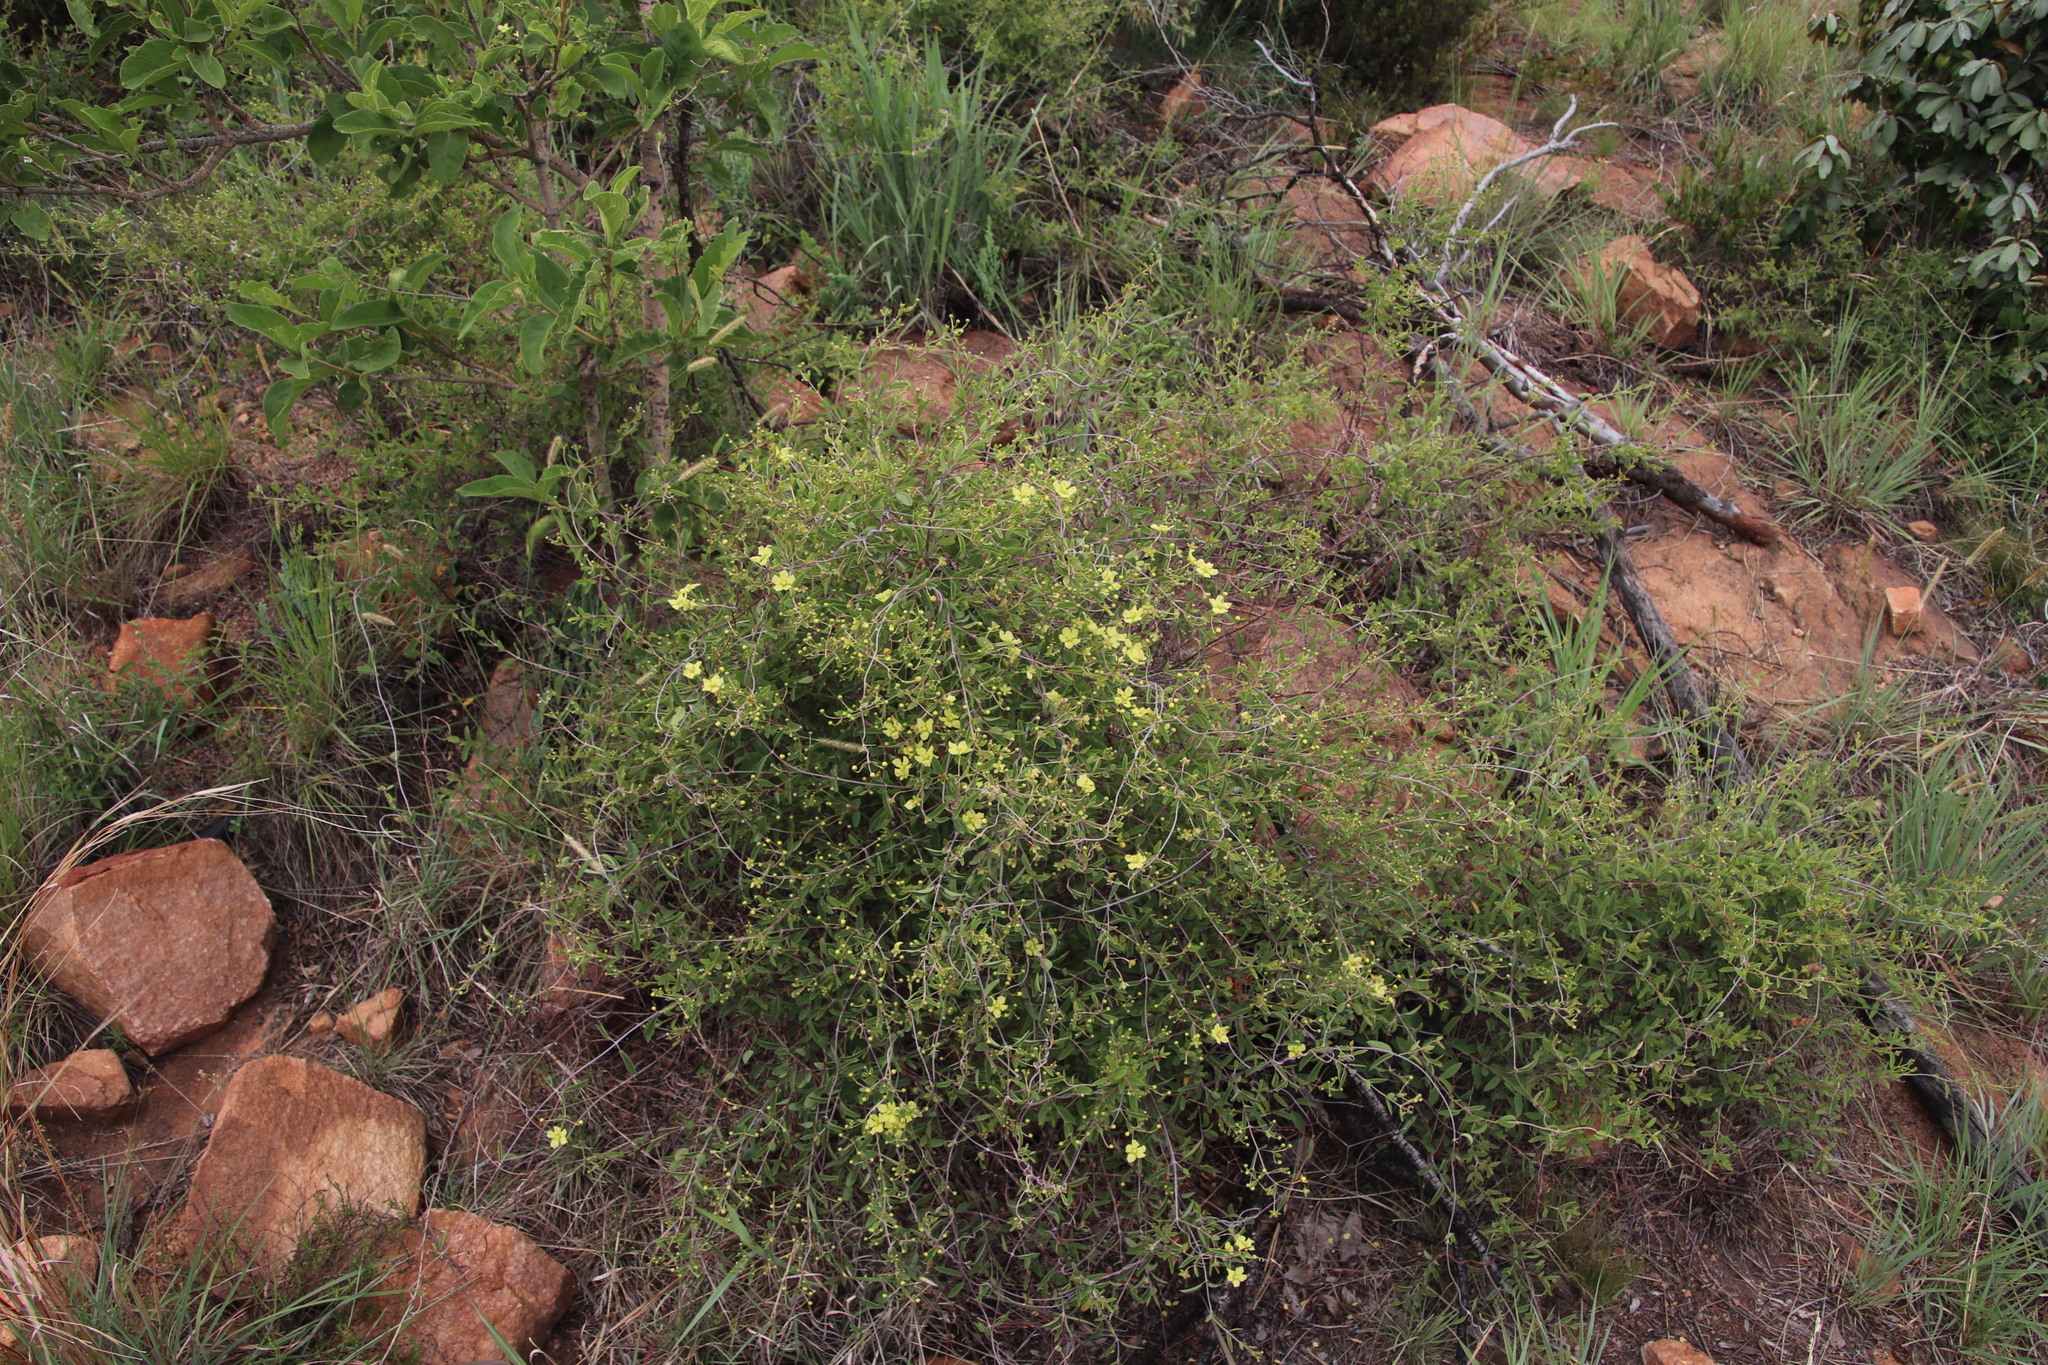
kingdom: Plantae
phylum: Tracheophyta
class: Magnoliopsida
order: Malpighiales
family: Malpighiaceae
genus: Sphedamnocarpus
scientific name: Sphedamnocarpus pruriens
